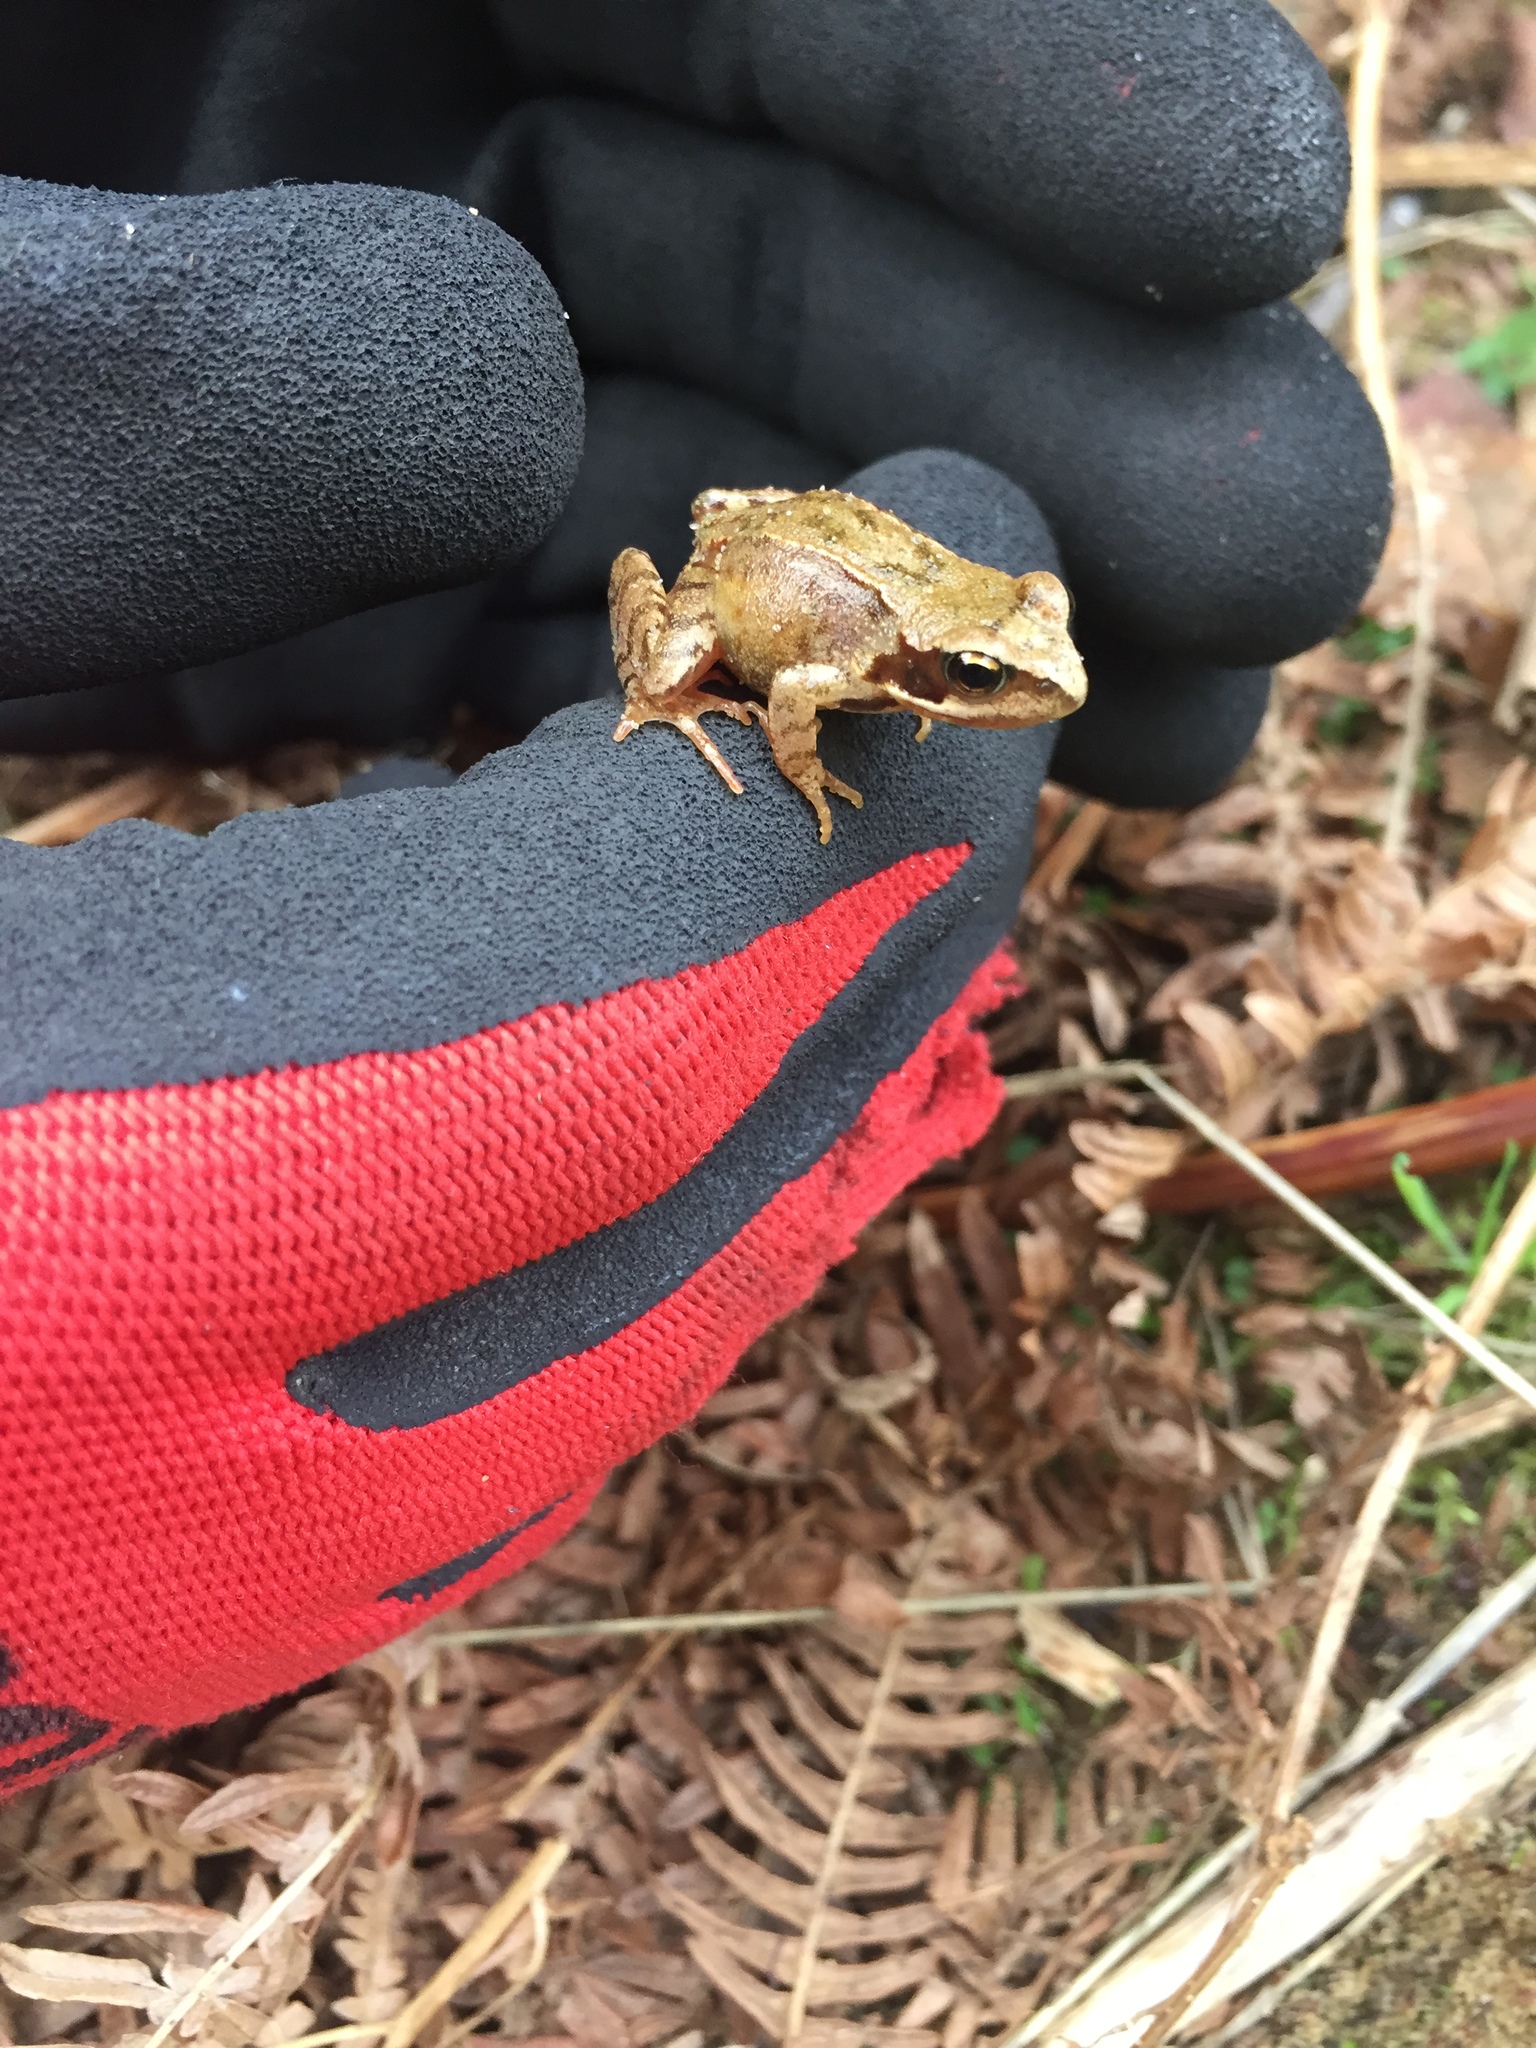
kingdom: Animalia
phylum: Chordata
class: Amphibia
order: Anura
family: Ranidae
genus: Rana
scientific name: Rana temporaria
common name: Common frog
